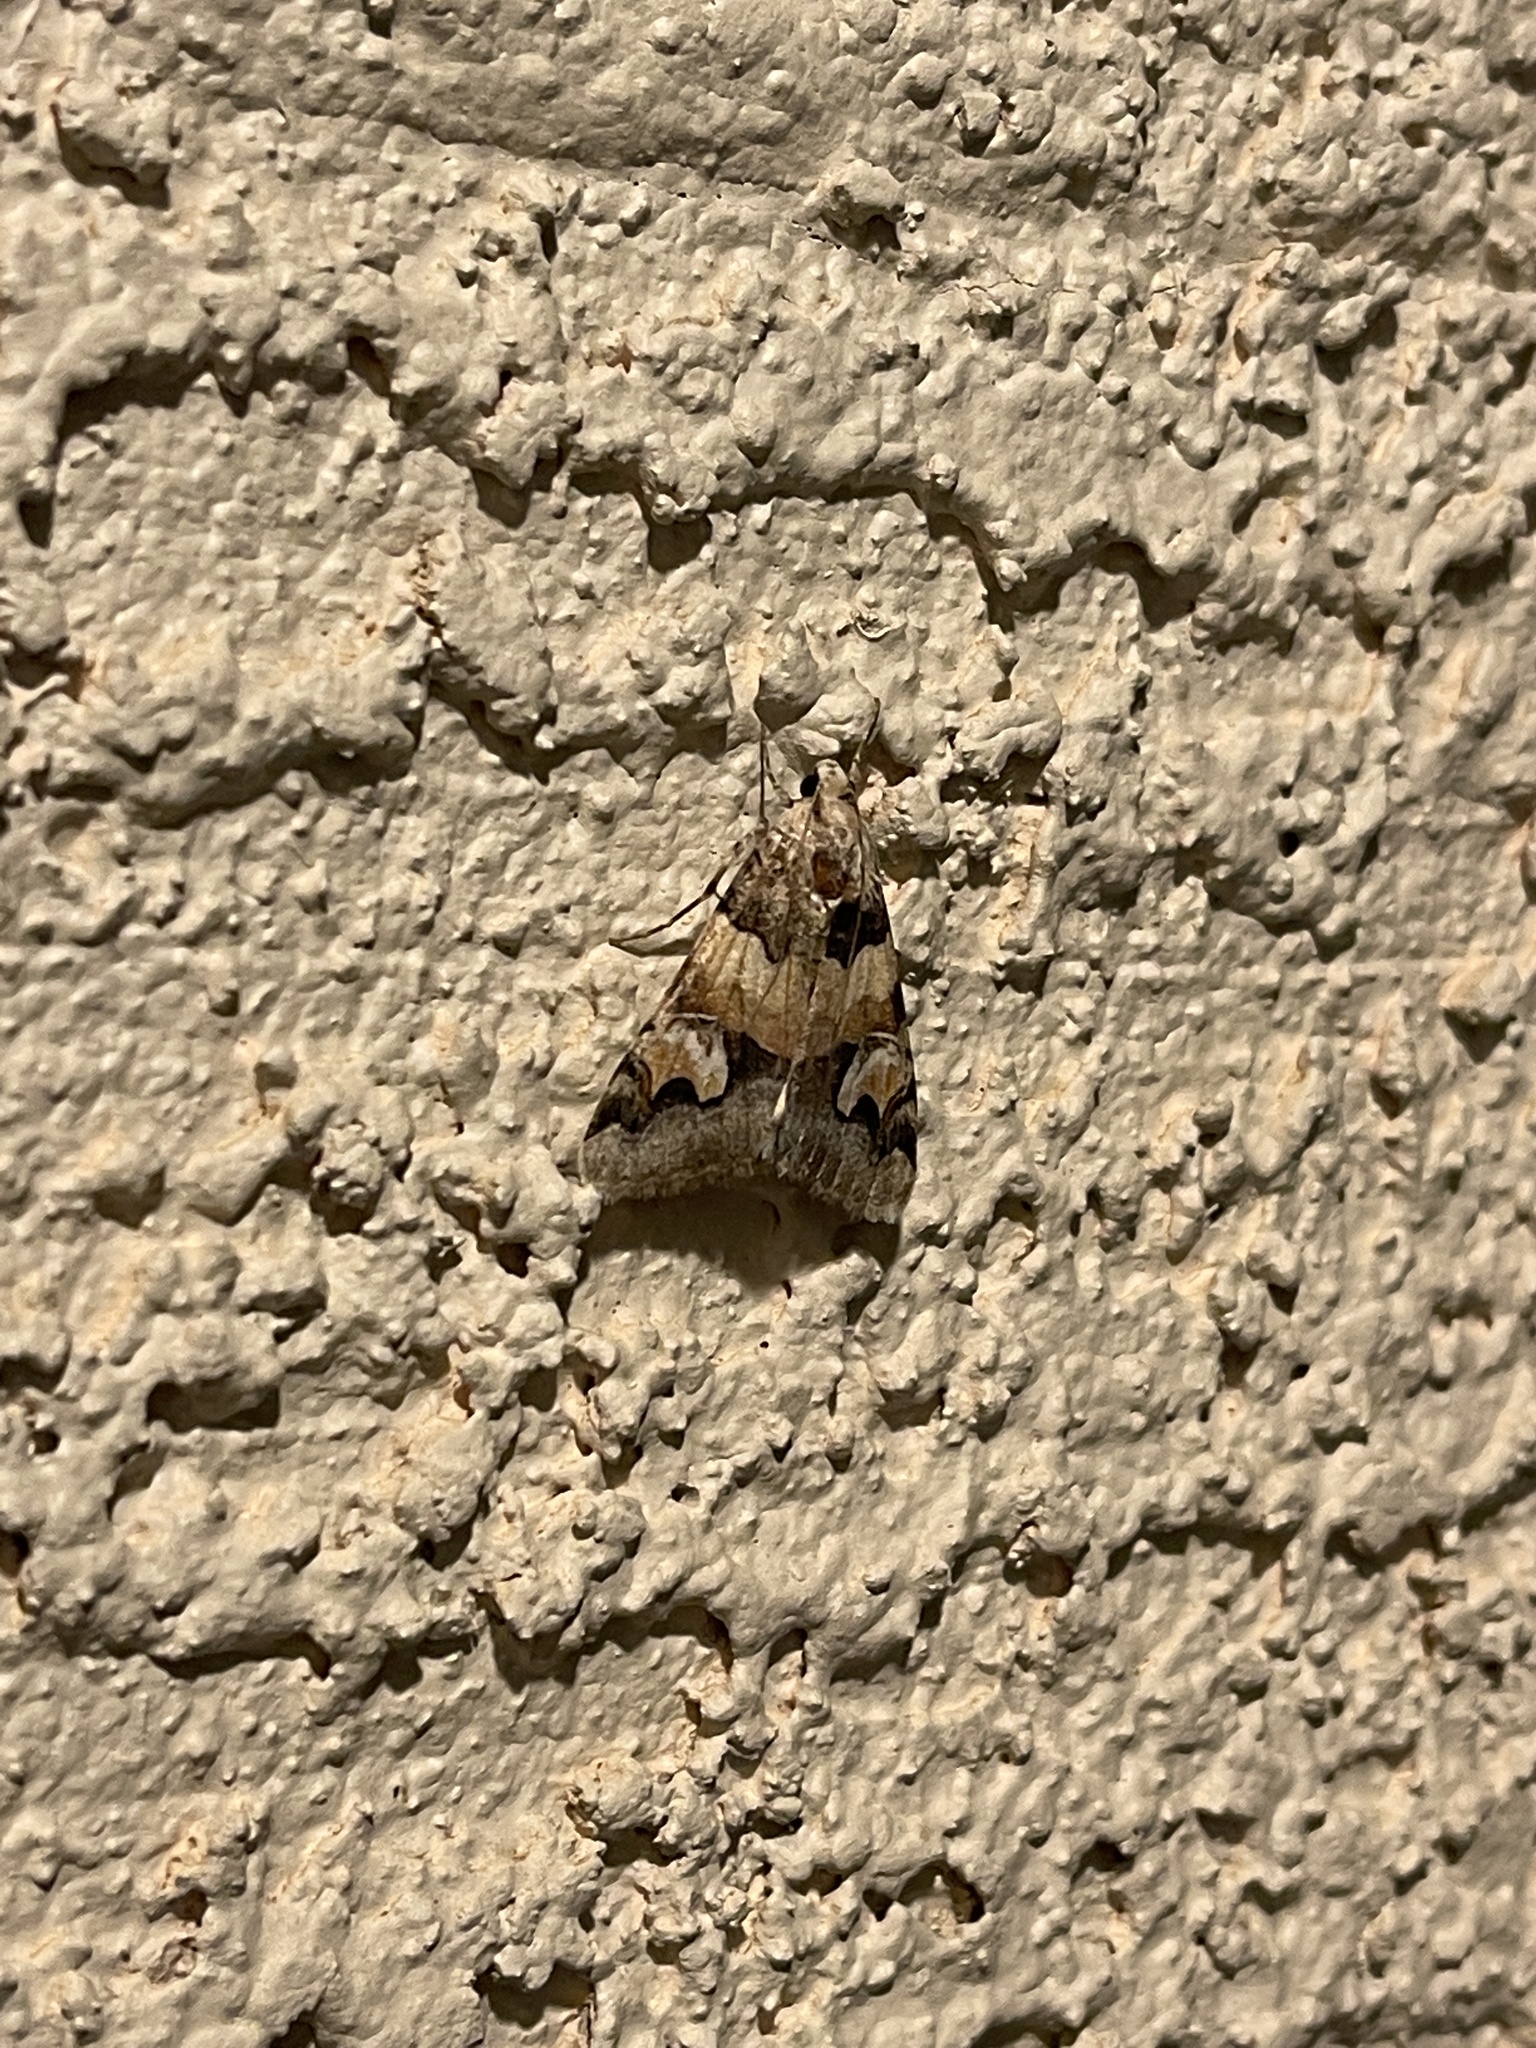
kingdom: Animalia
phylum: Arthropoda
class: Insecta
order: Lepidoptera
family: Erebidae
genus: Drasteria
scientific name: Drasteria fumosa
